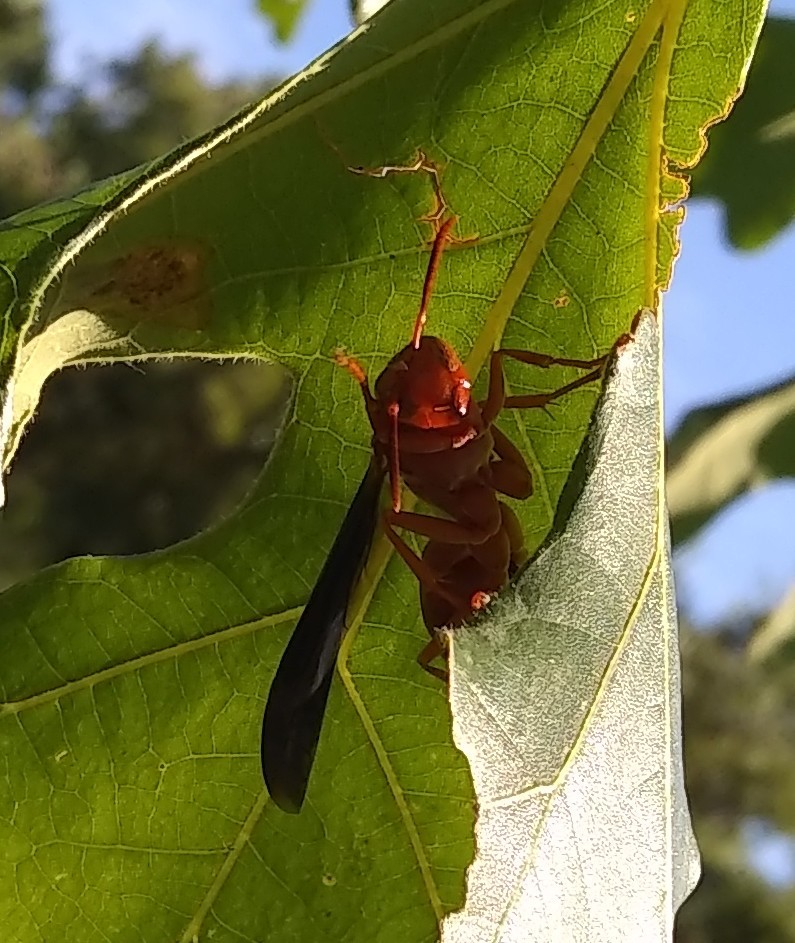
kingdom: Animalia
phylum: Arthropoda
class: Insecta
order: Hymenoptera
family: Vespidae
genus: Fuscopolistes
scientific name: Fuscopolistes
